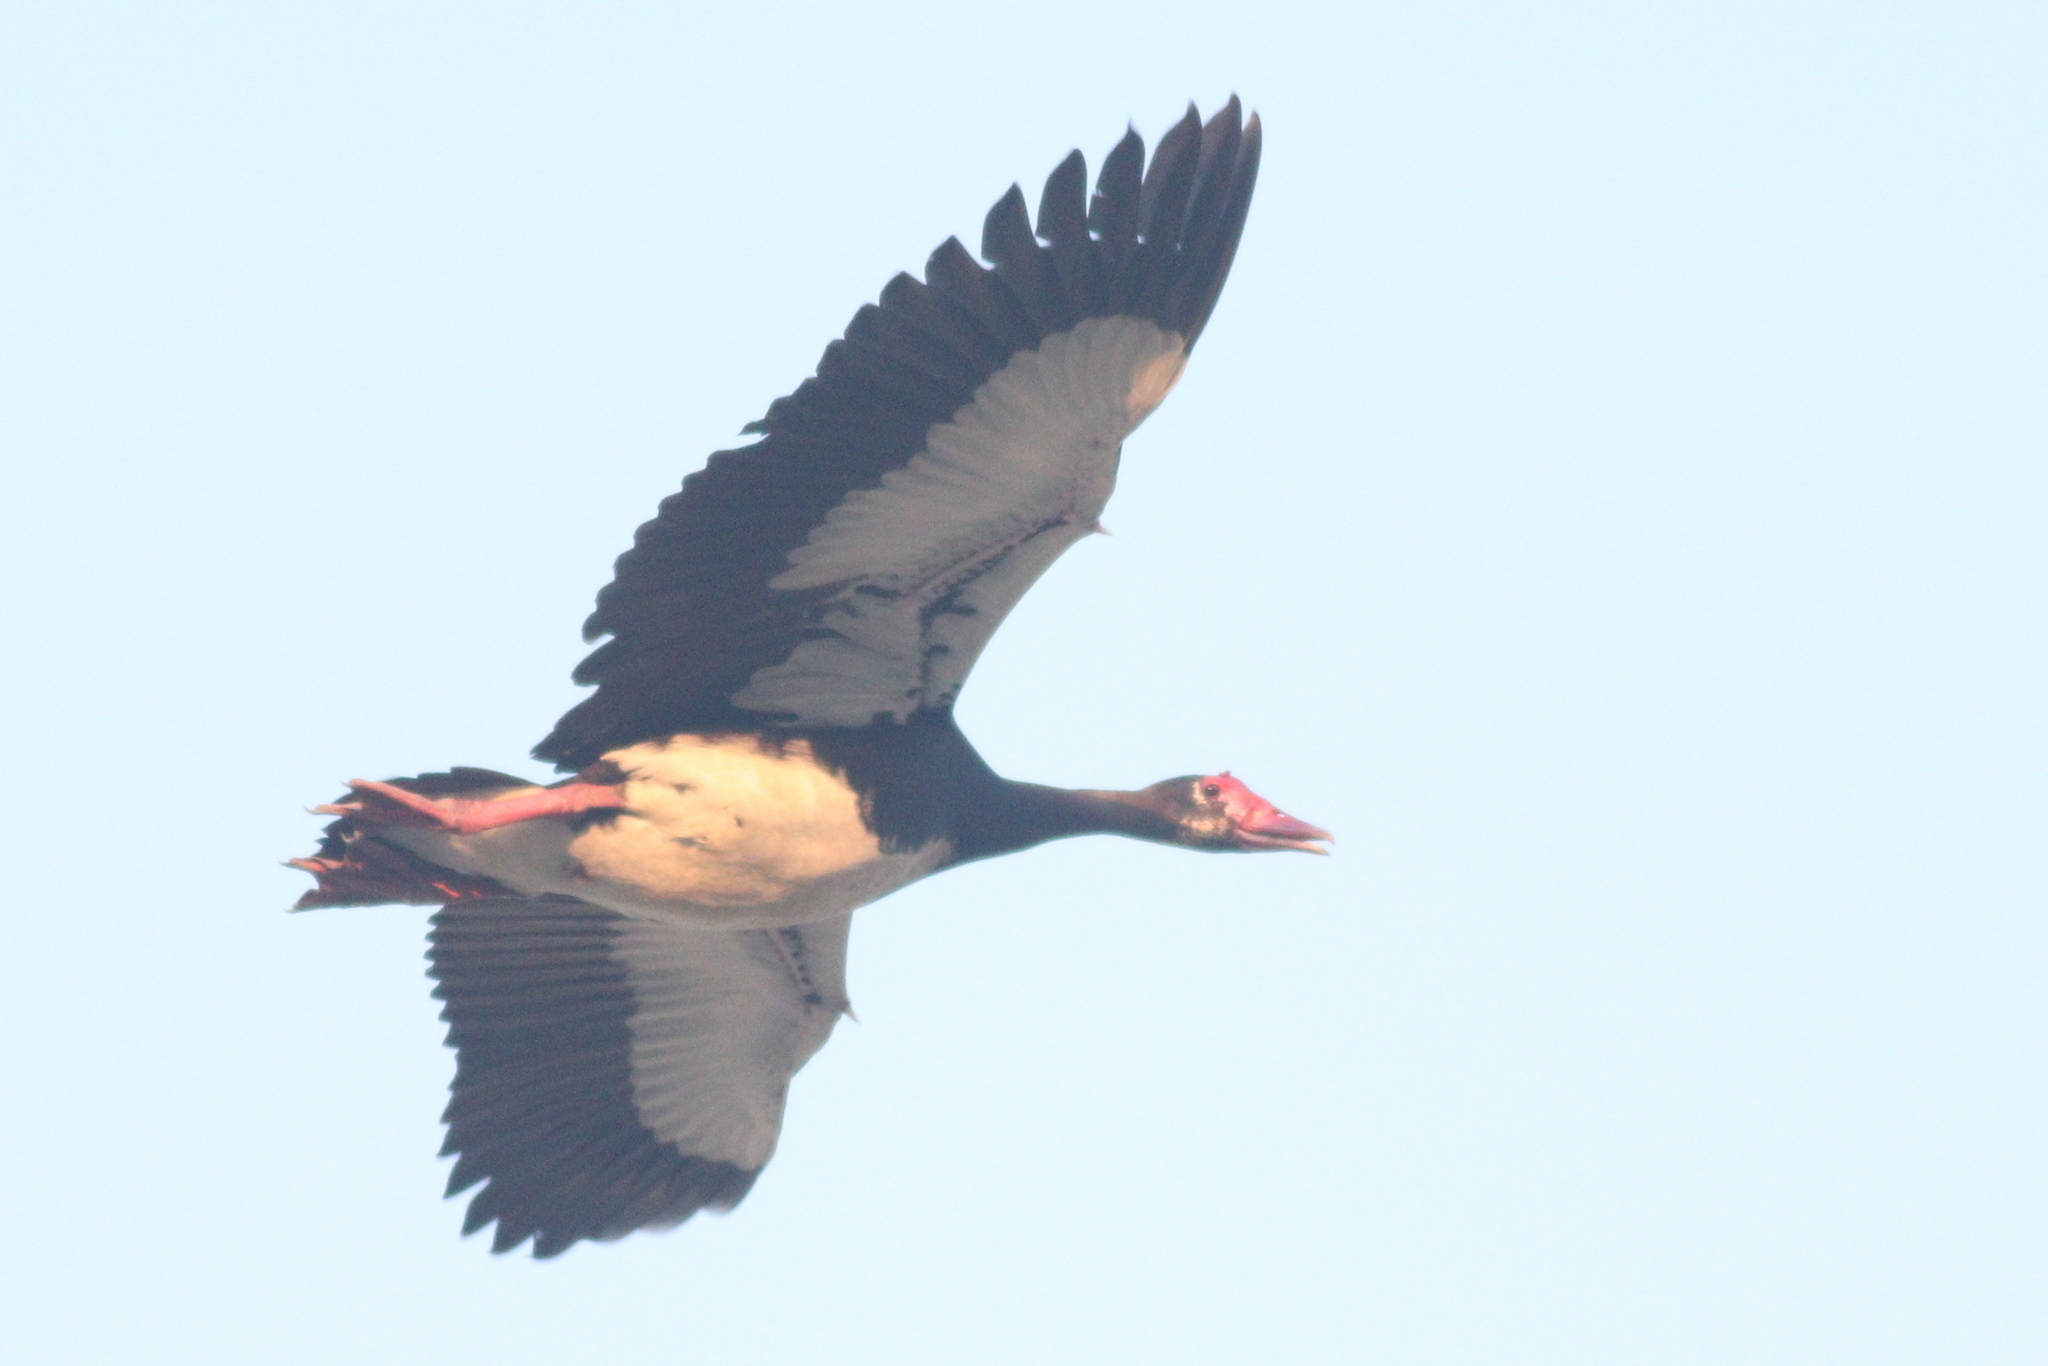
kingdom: Animalia
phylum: Chordata
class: Aves
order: Anseriformes
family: Anatidae
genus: Plectropterus
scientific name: Plectropterus gambensis
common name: Spur-winged goose
